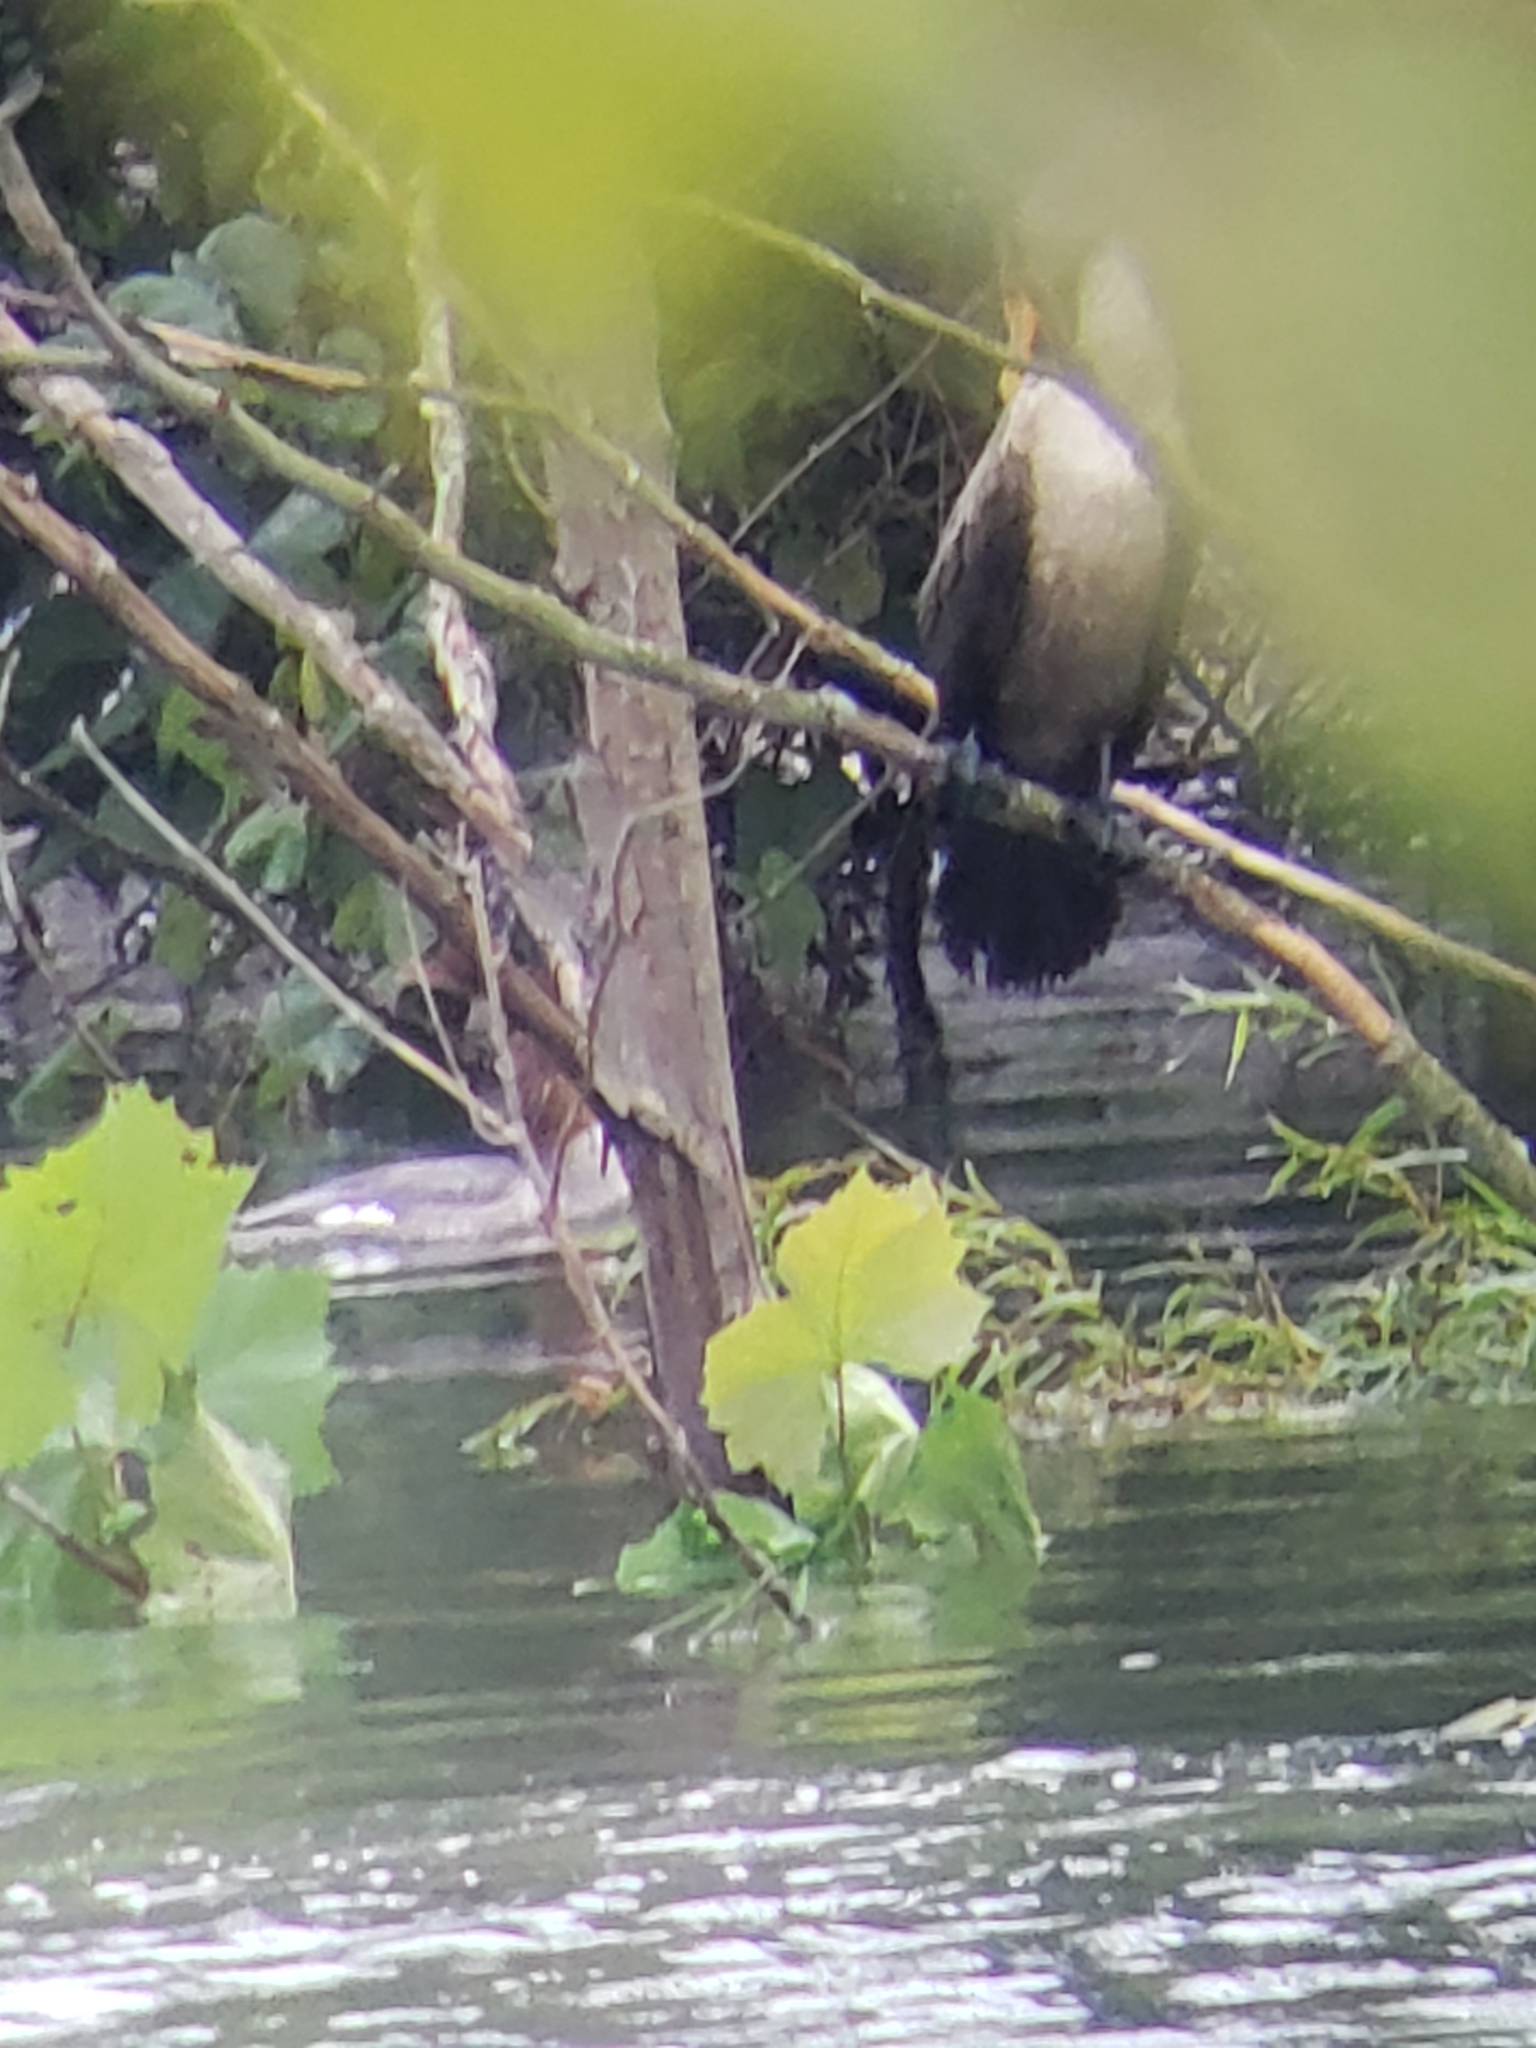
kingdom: Animalia
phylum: Chordata
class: Aves
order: Anseriformes
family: Anatidae
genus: Mergus
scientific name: Mergus merganser
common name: Common merganser
